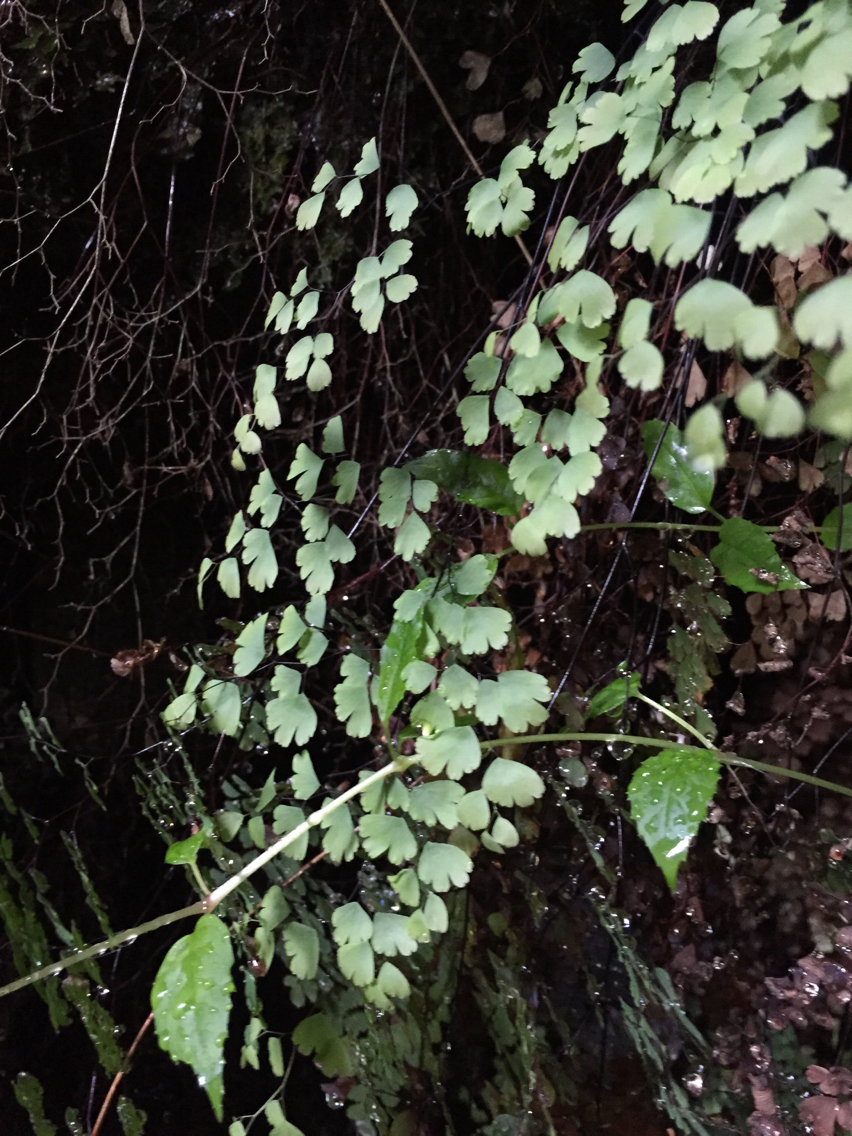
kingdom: Plantae
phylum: Tracheophyta
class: Polypodiopsida
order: Polypodiales
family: Pteridaceae
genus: Adiantum
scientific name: Adiantum capillus-veneris
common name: Maidenhair fern
